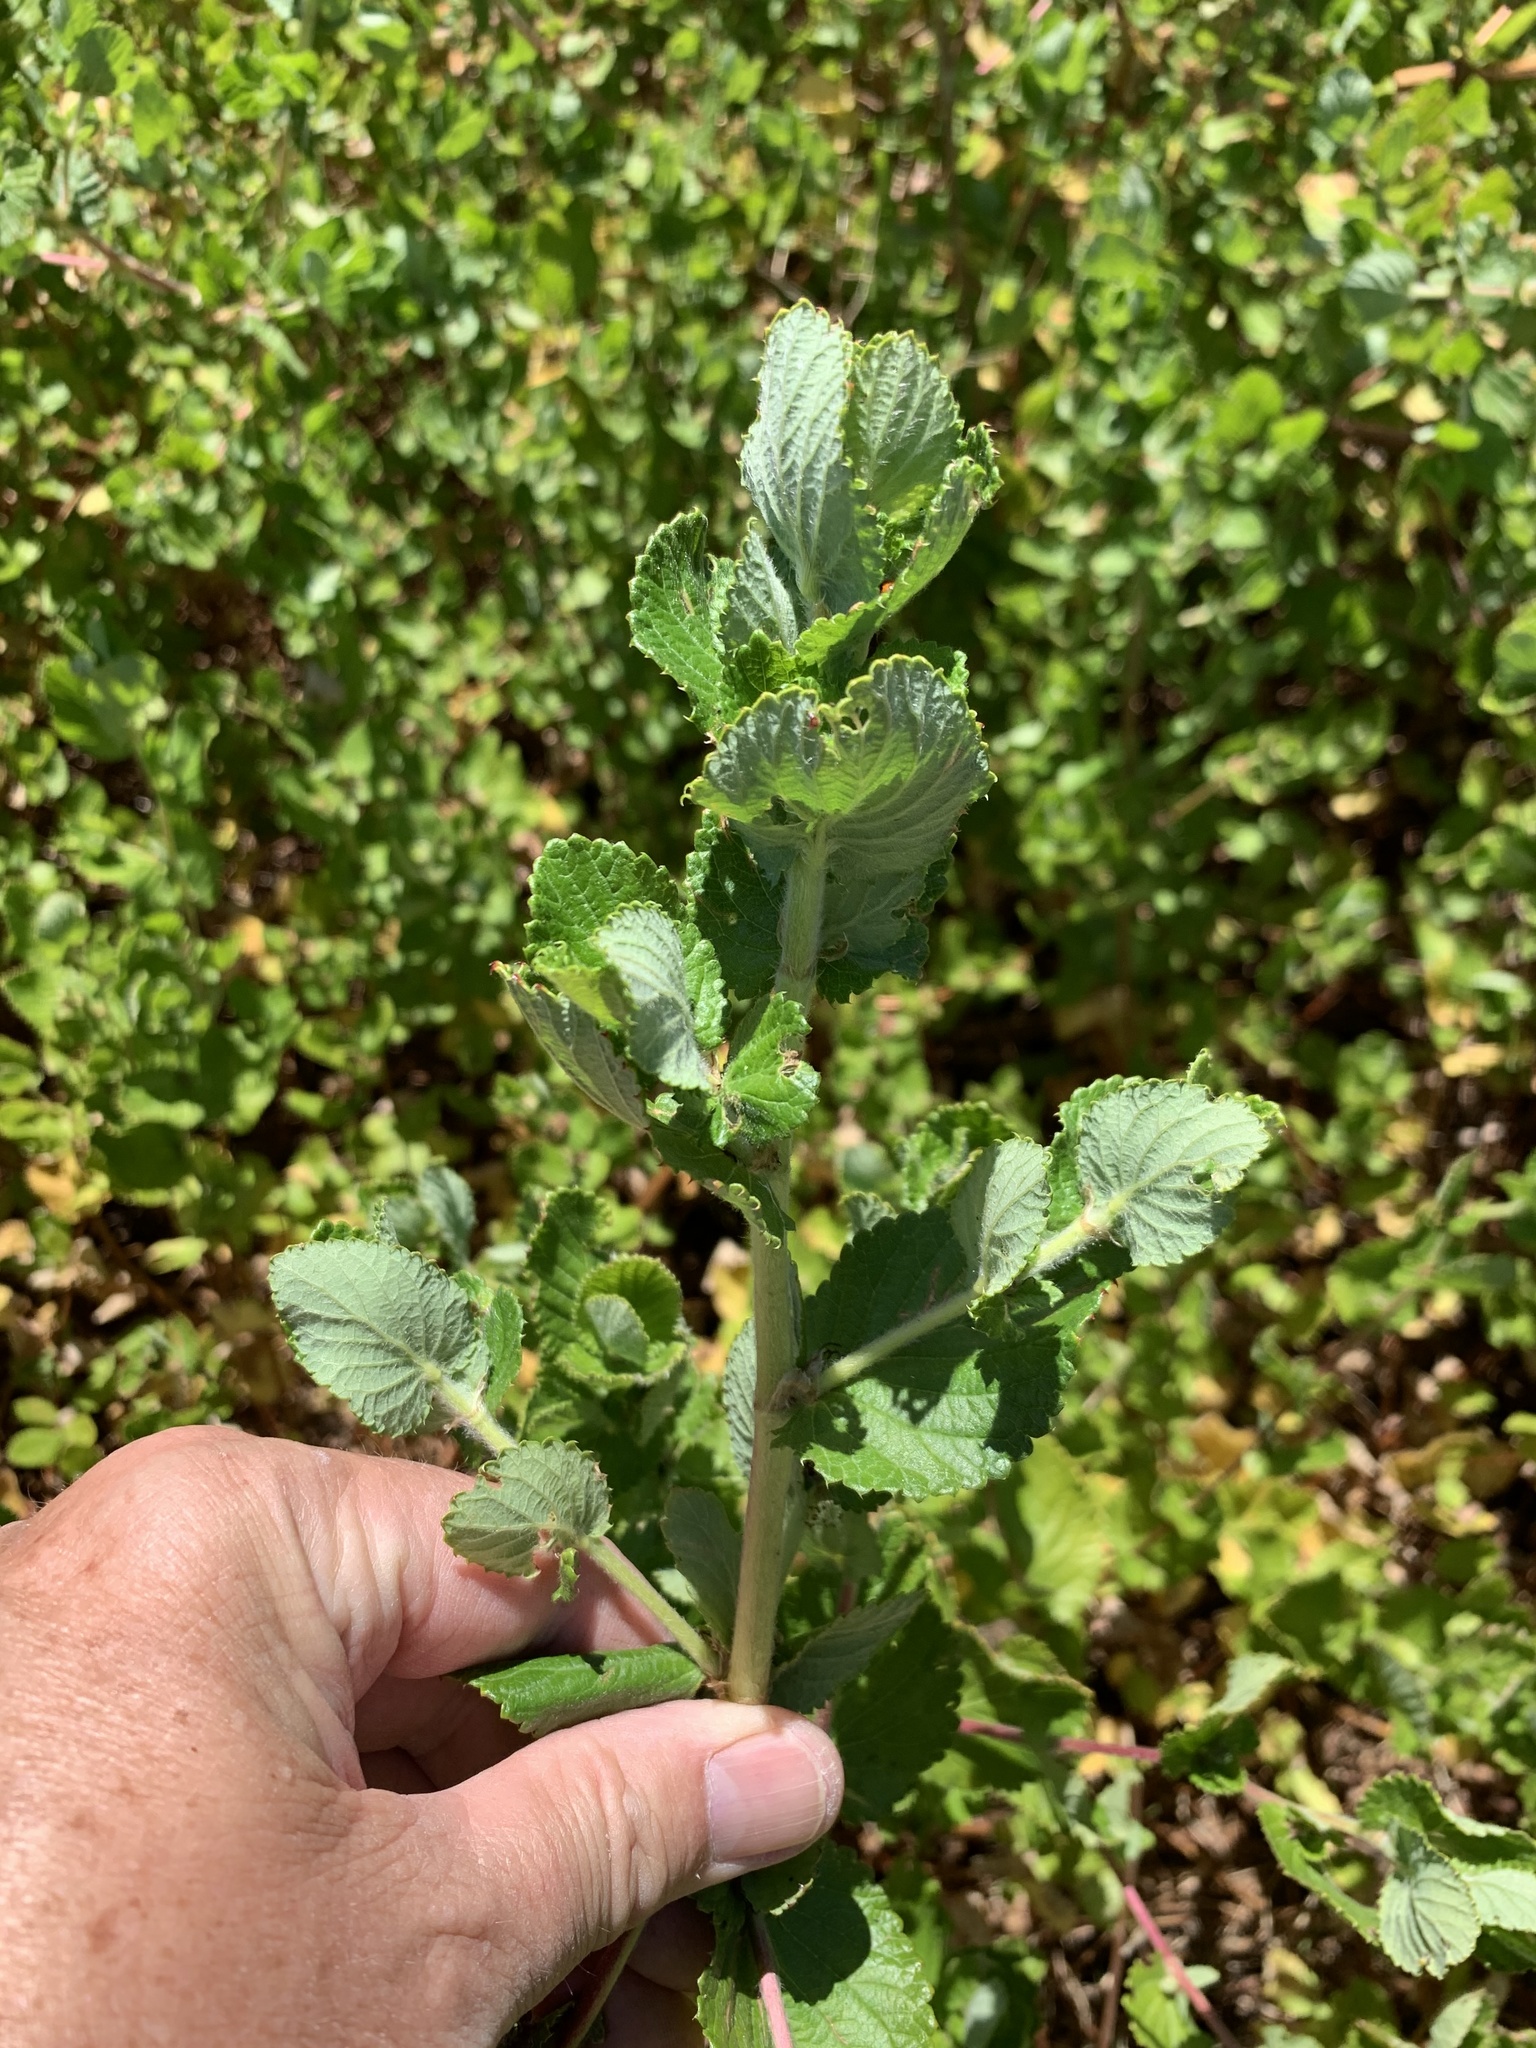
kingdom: Plantae
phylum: Tracheophyta
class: Magnoliopsida
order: Rosales
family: Rosaceae
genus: Cliffortia
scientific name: Cliffortia odorata
